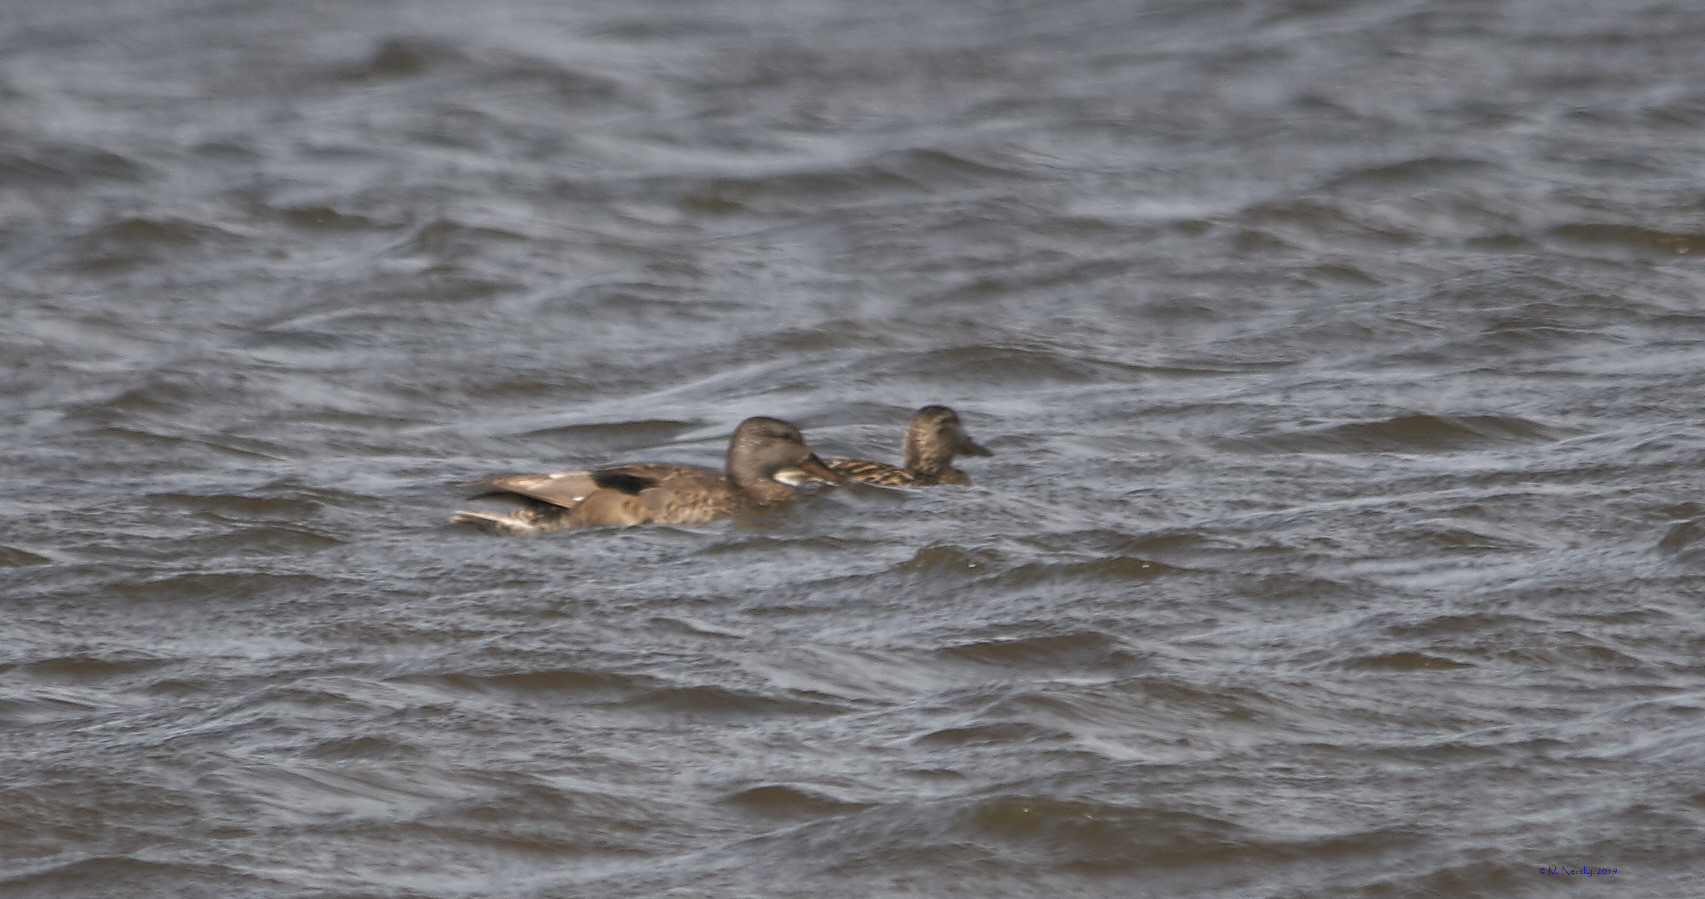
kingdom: Animalia
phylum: Chordata
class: Aves
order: Anseriformes
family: Anatidae
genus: Mareca
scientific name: Mareca strepera
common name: Gadwall
